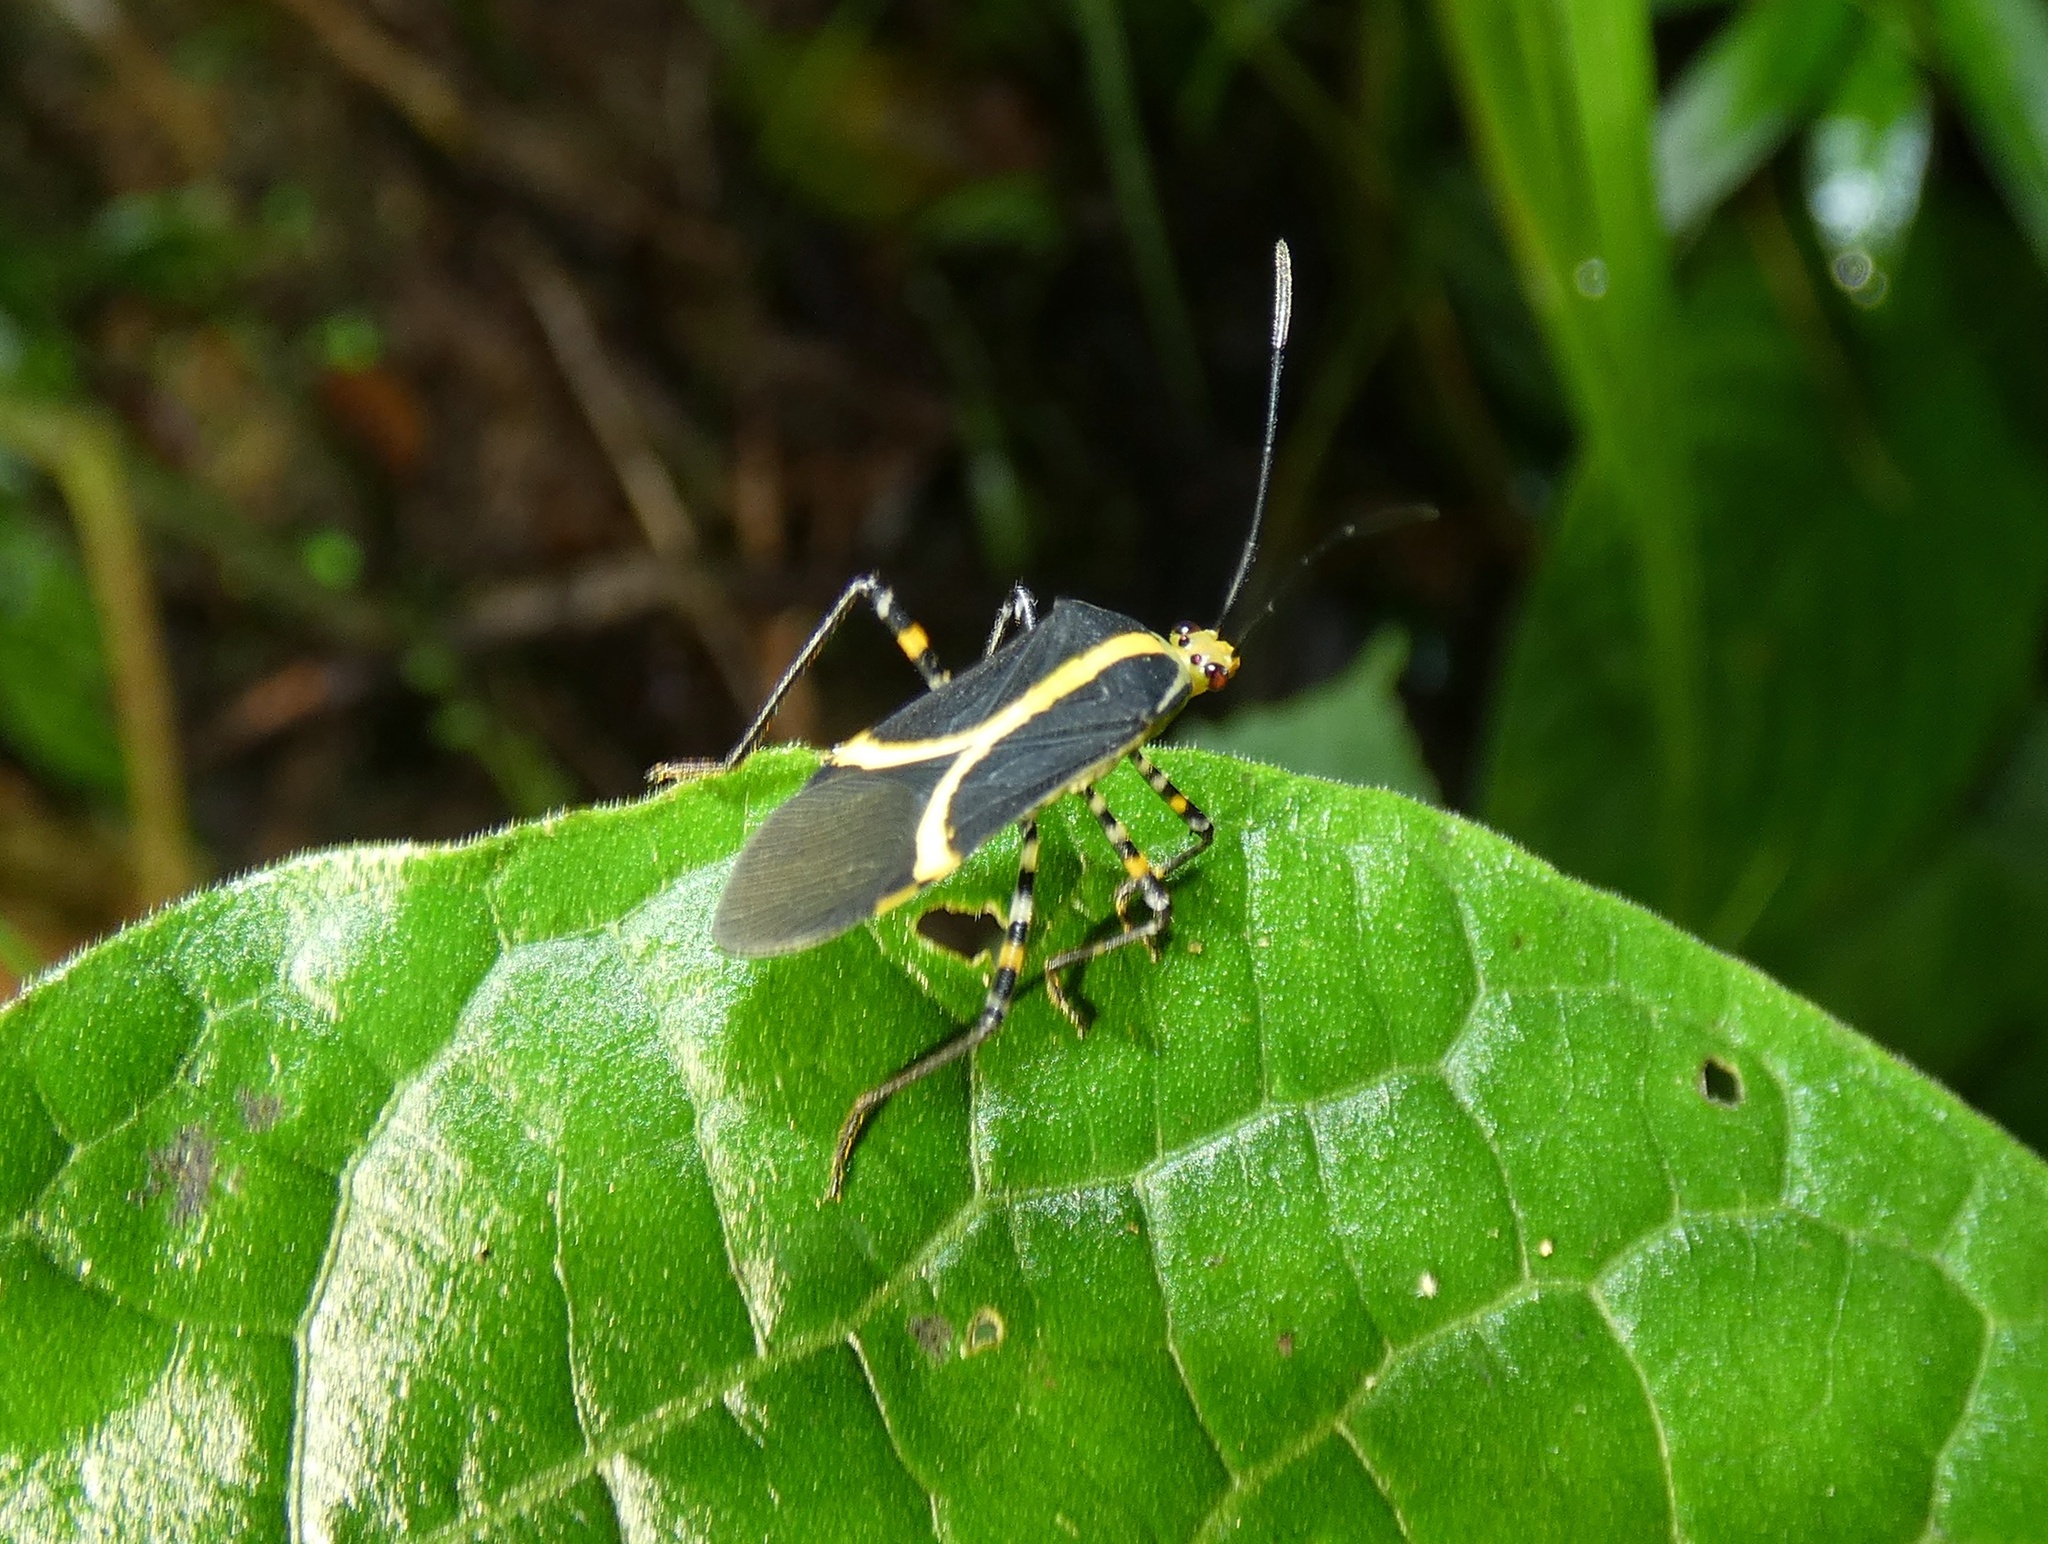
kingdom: Animalia
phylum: Arthropoda
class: Insecta
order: Hemiptera
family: Coreidae
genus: Hypselonotus
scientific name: Hypselonotus linea
